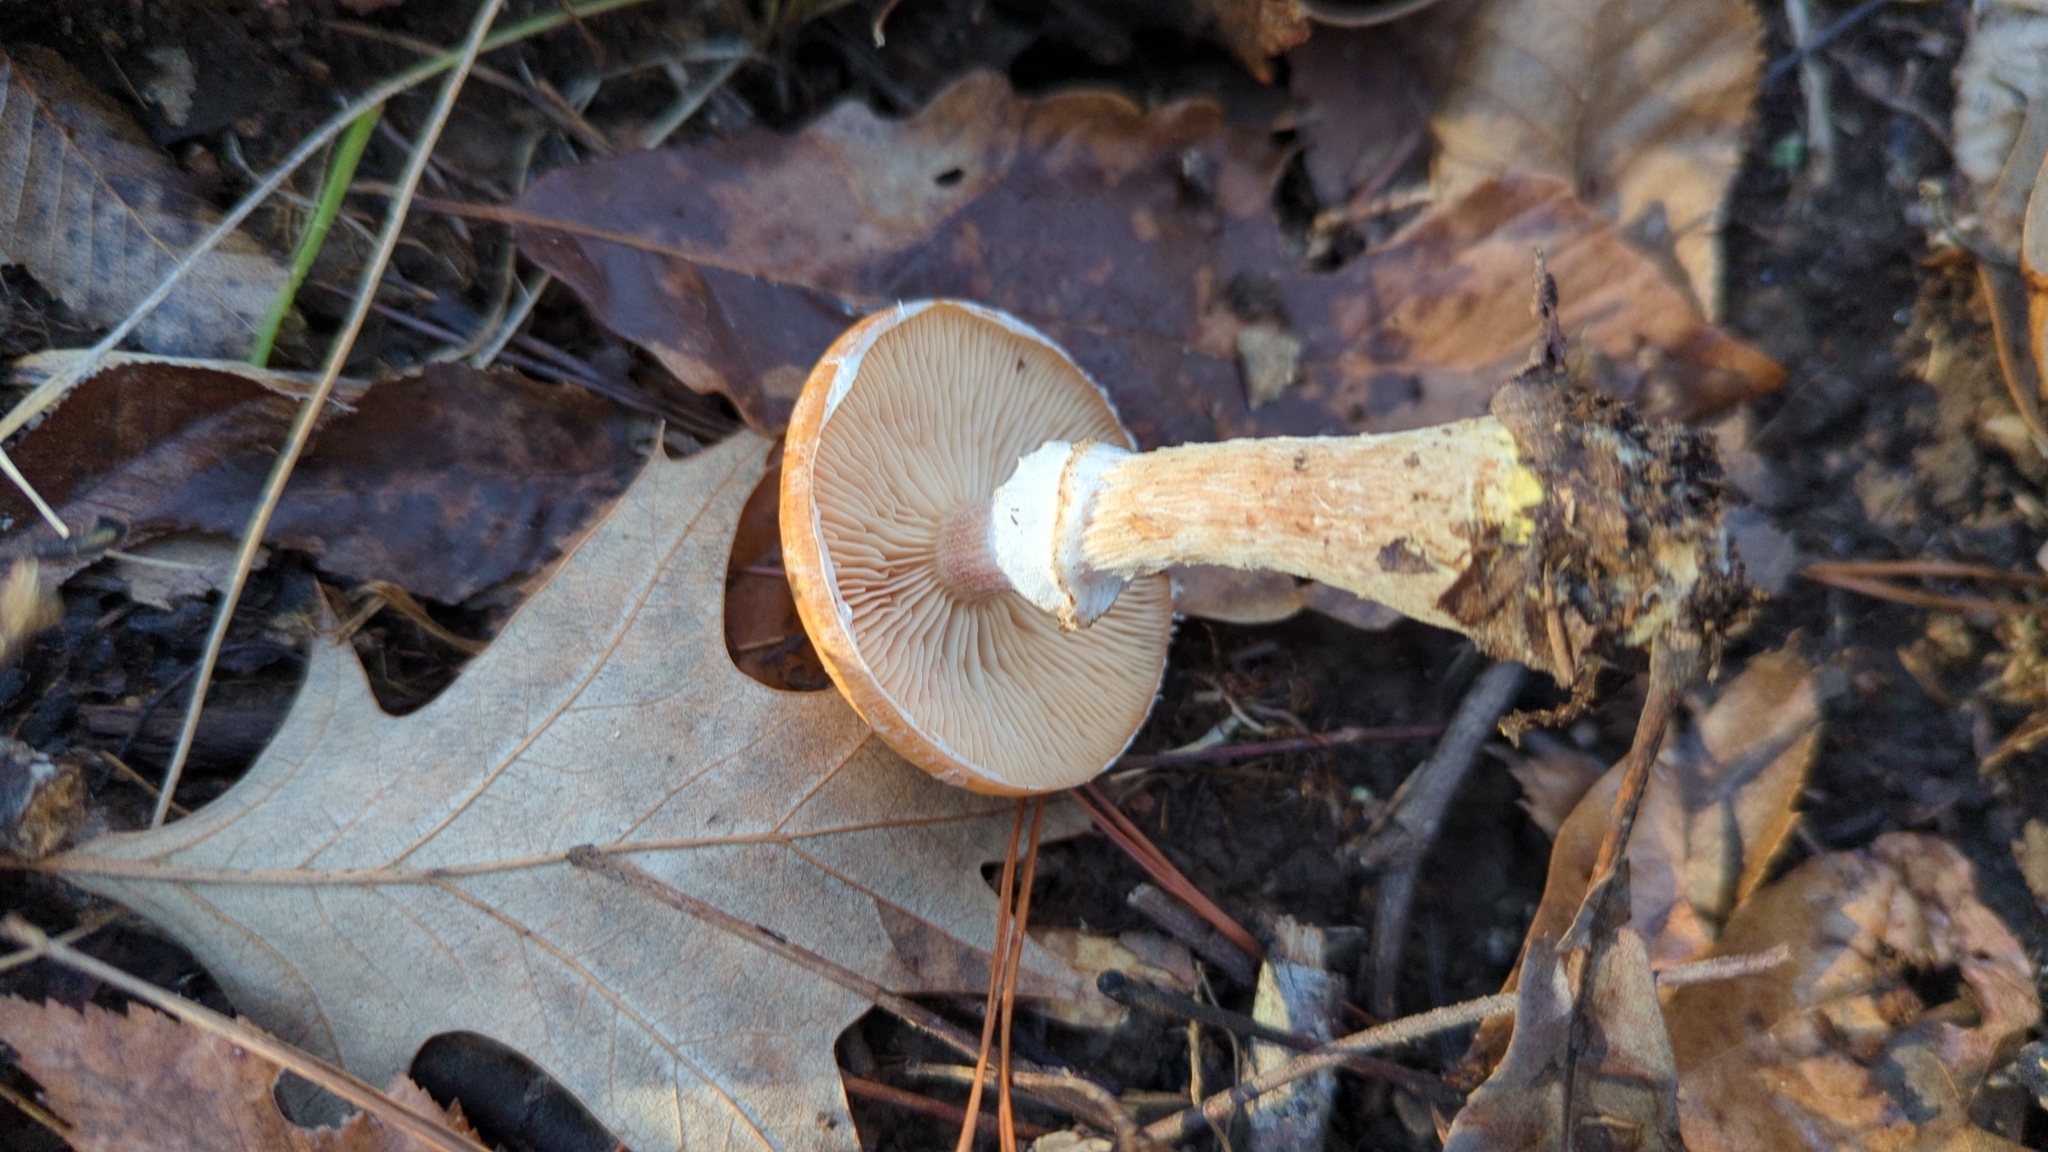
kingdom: Fungi
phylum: Basidiomycota
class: Agaricomycetes
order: Agaricales
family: Physalacriaceae
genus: Armillaria
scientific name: Armillaria gallica
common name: Bulbous honey fungus
